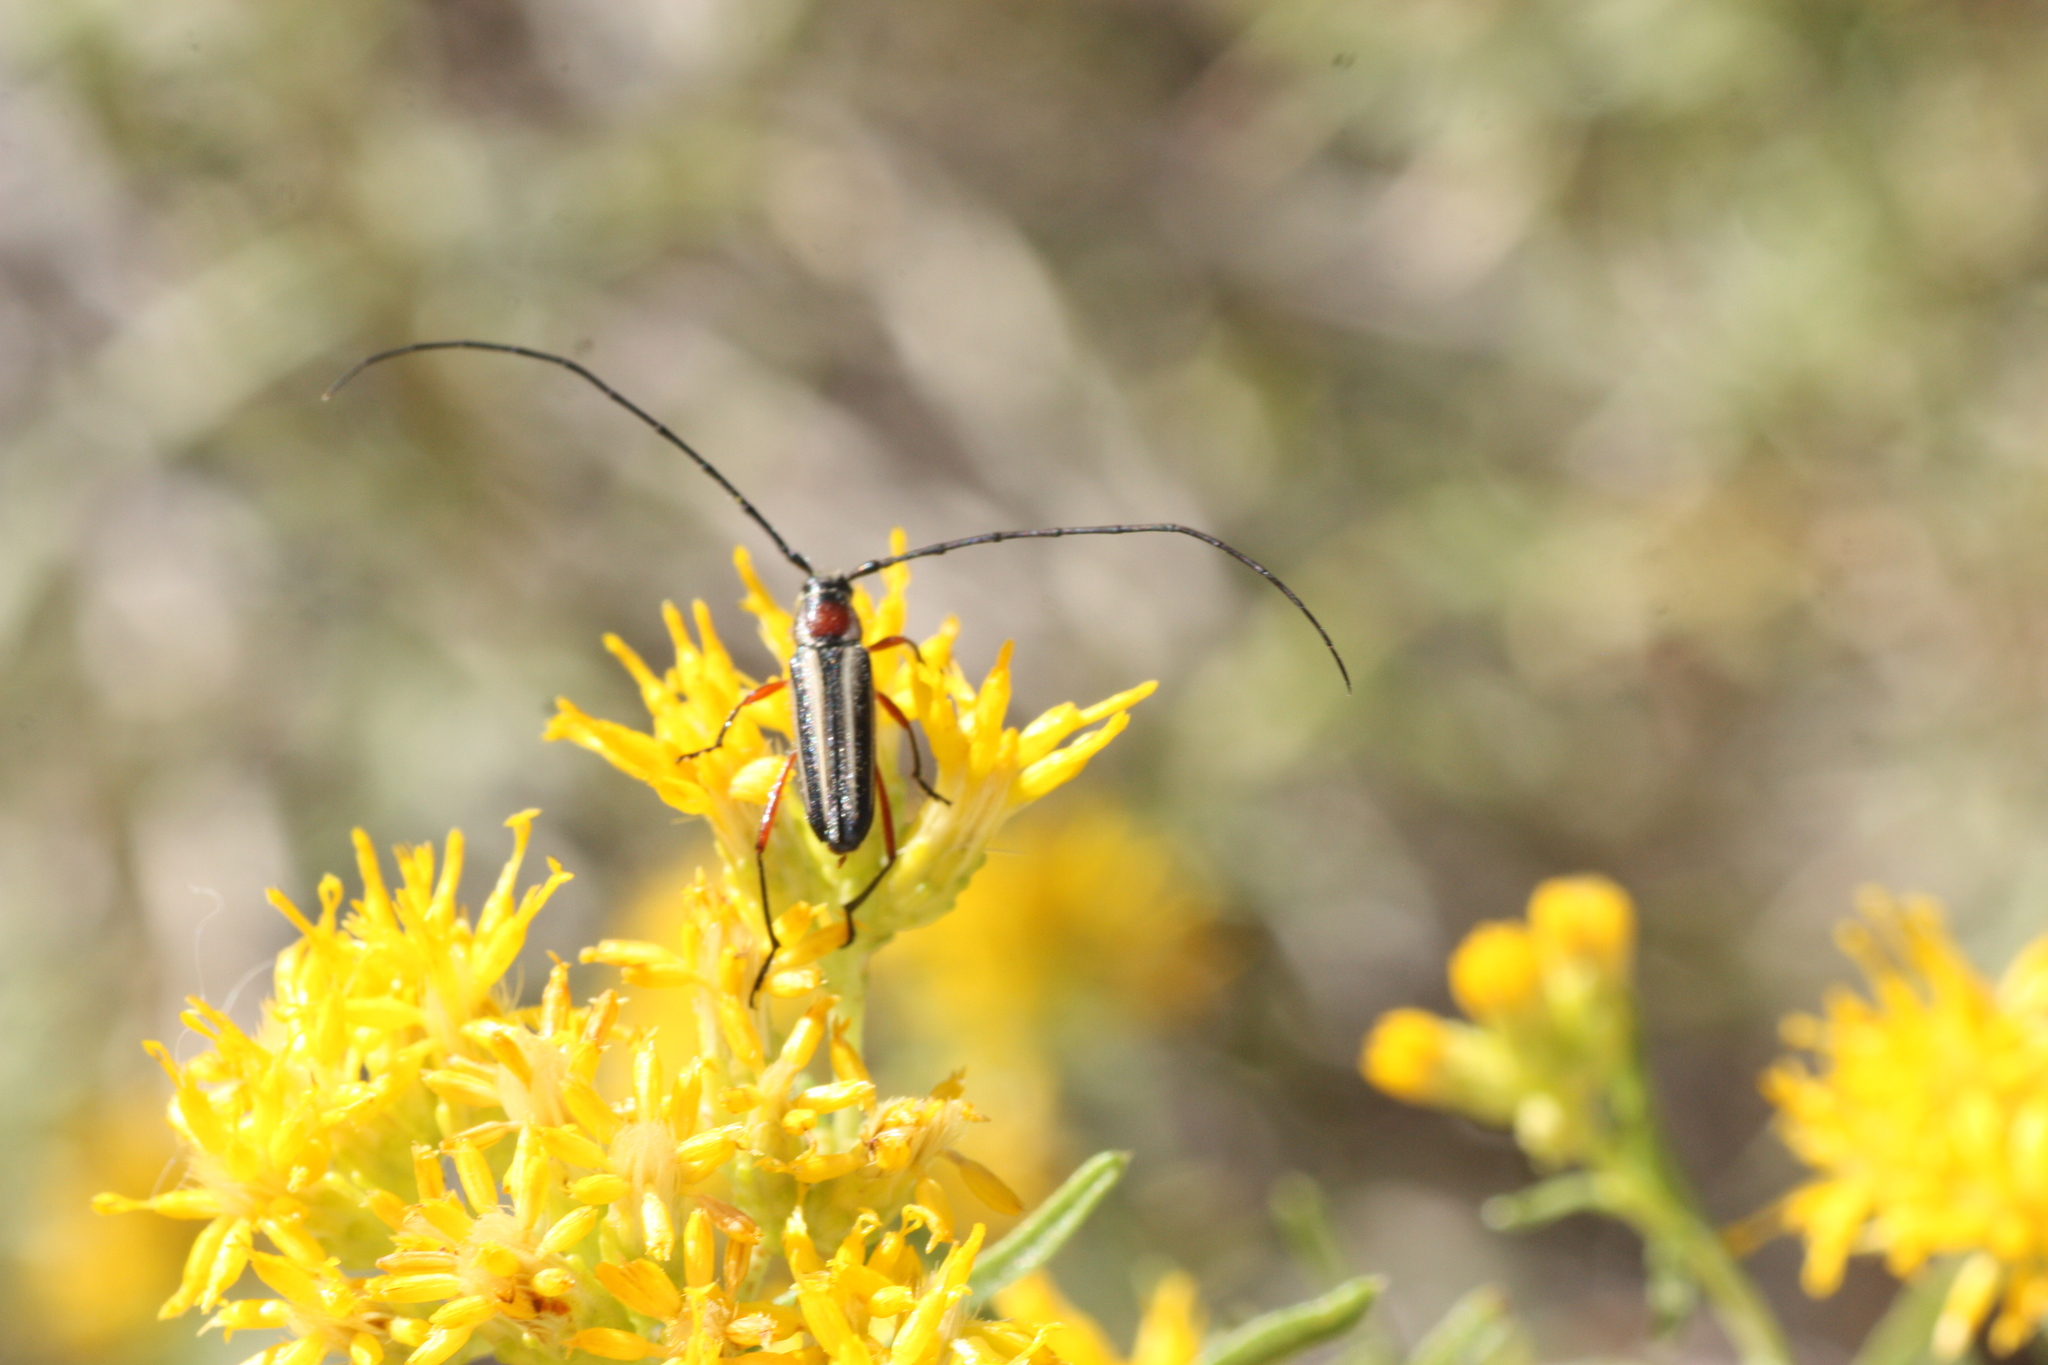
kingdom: Animalia
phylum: Arthropoda
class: Insecta
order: Coleoptera
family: Cerambycidae
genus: Sphaenothecus
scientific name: Sphaenothecus bilineatus
